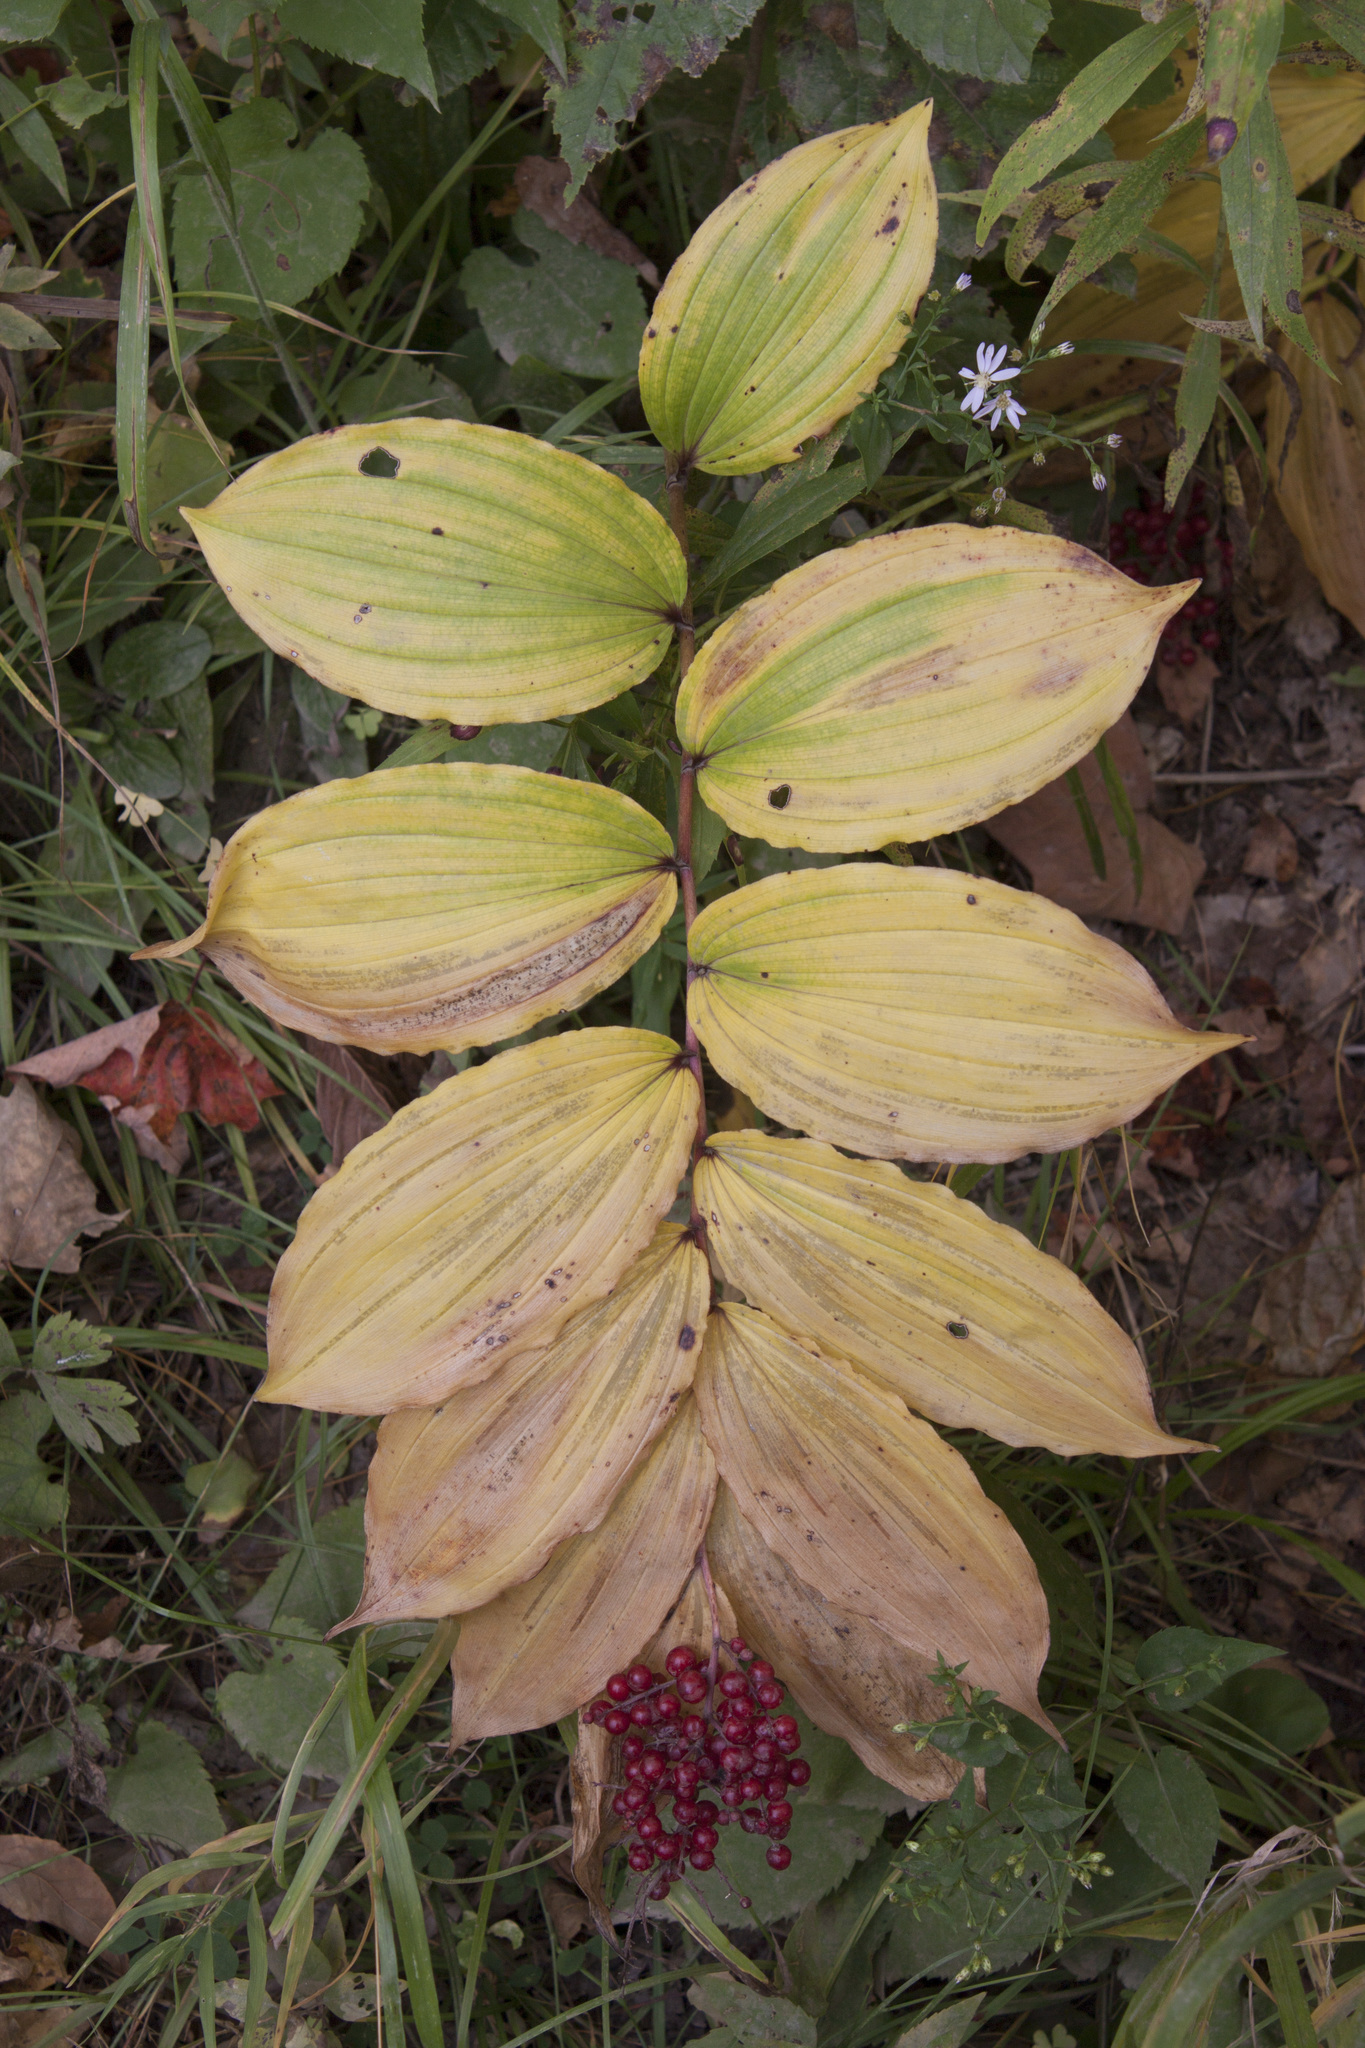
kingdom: Plantae
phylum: Tracheophyta
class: Liliopsida
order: Asparagales
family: Asparagaceae
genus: Maianthemum
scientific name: Maianthemum racemosum
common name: False spikenard
